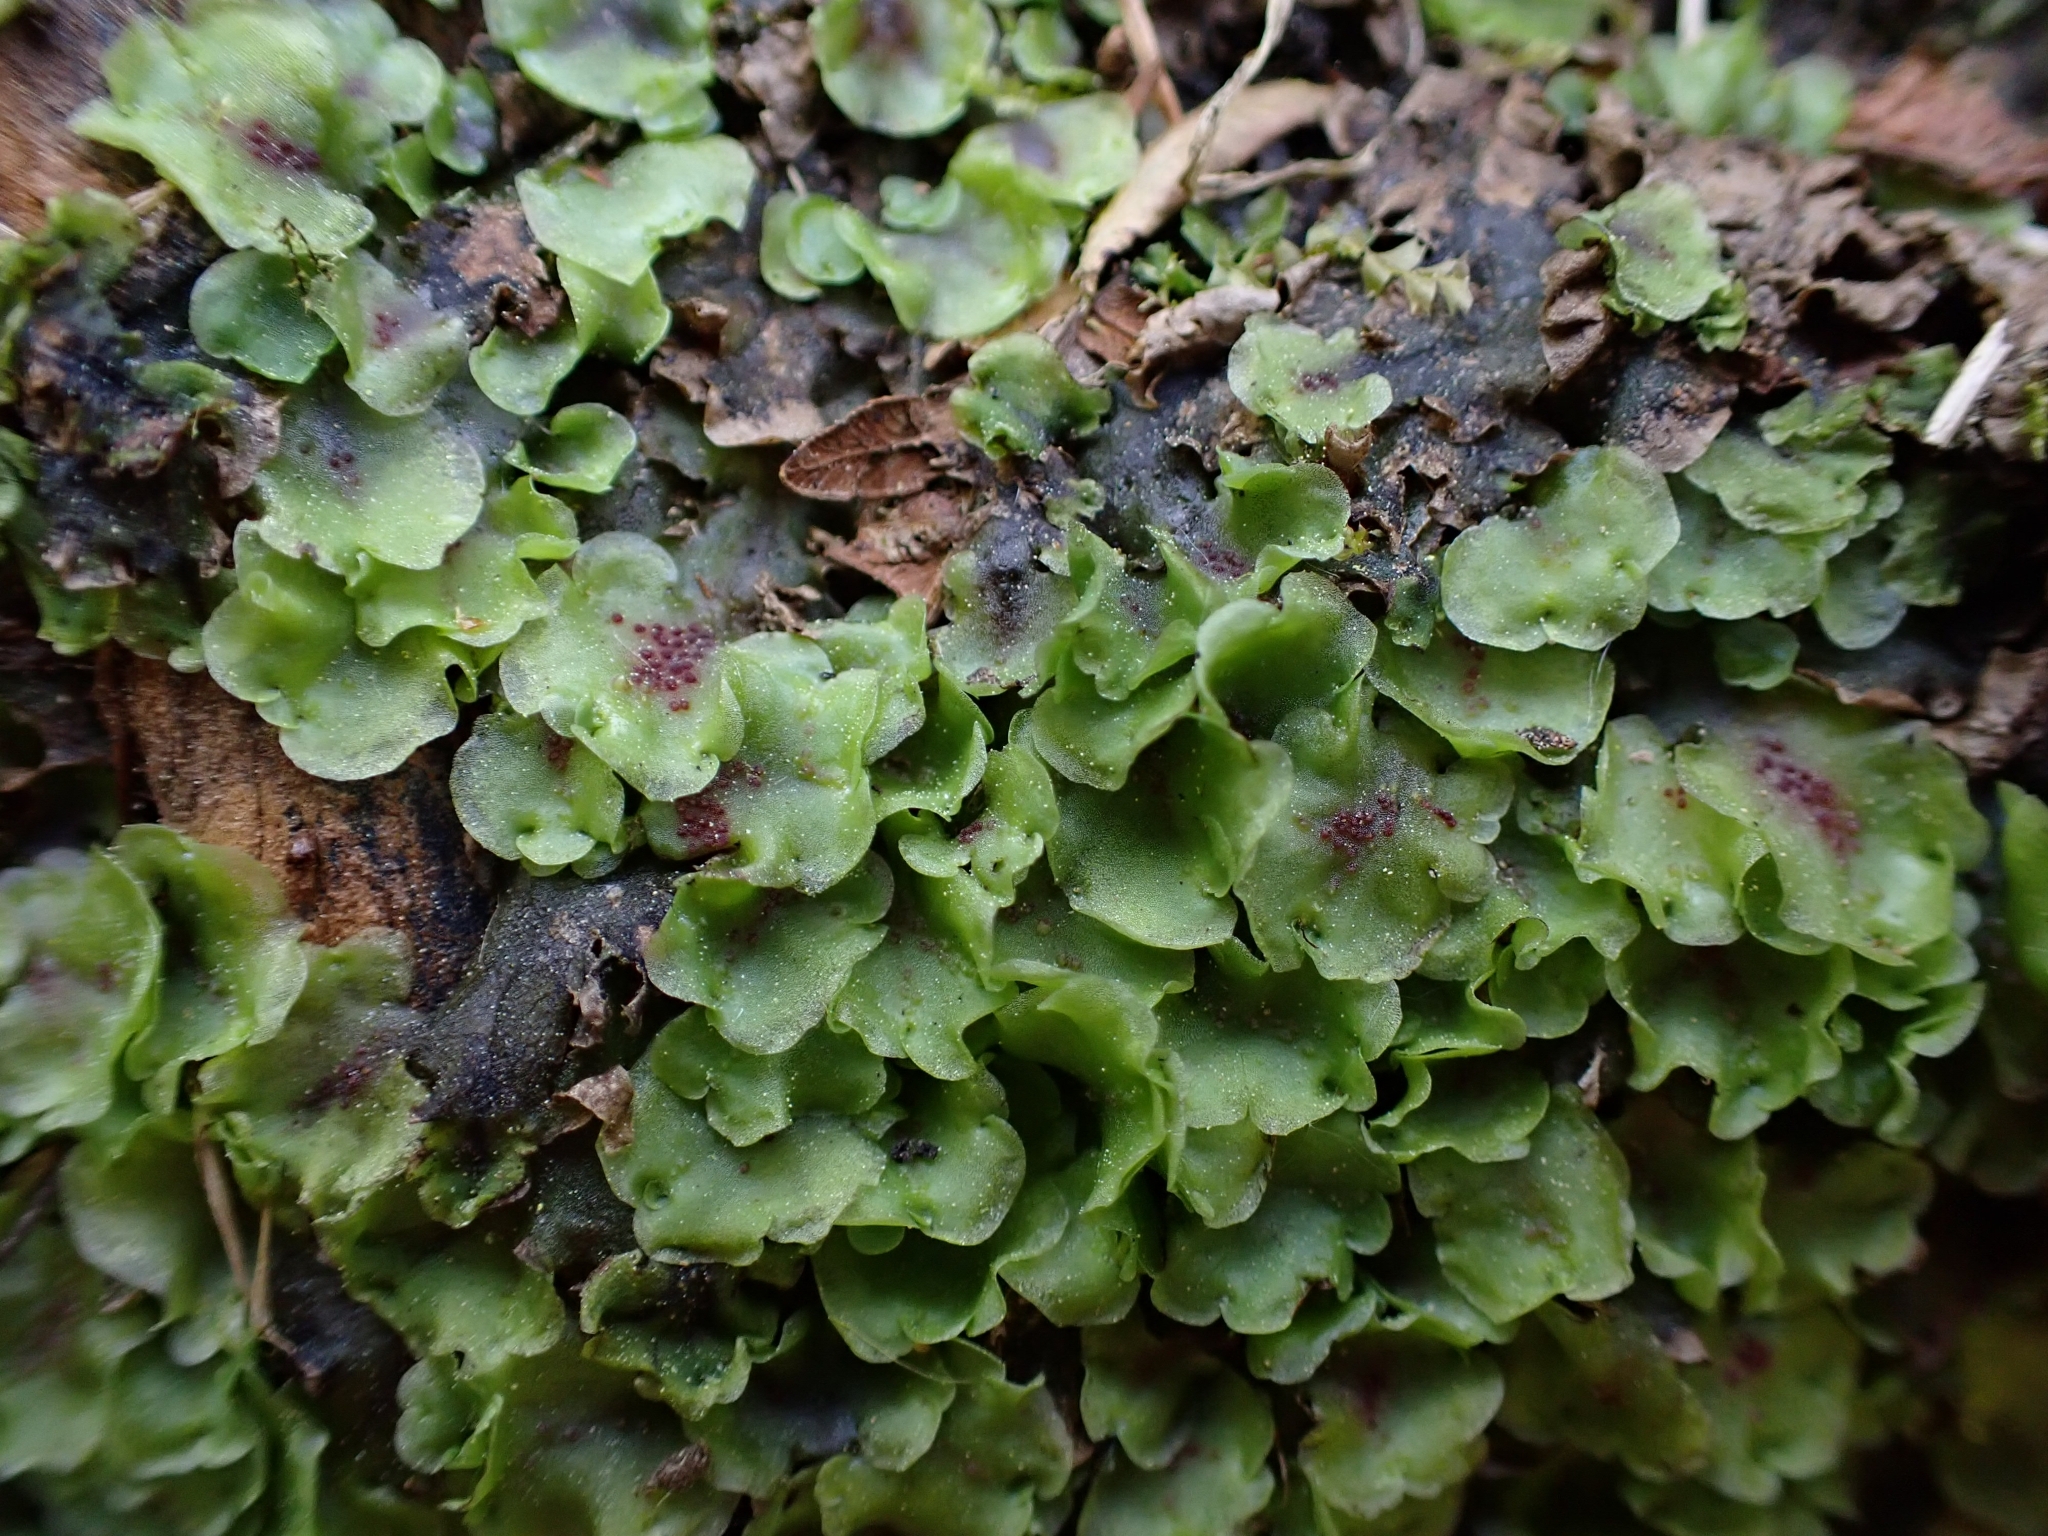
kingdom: Plantae
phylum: Marchantiophyta
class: Jungermanniopsida
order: Pelliales
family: Pelliaceae
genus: Pellia
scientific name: Pellia neesiana
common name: Nees  pellia
